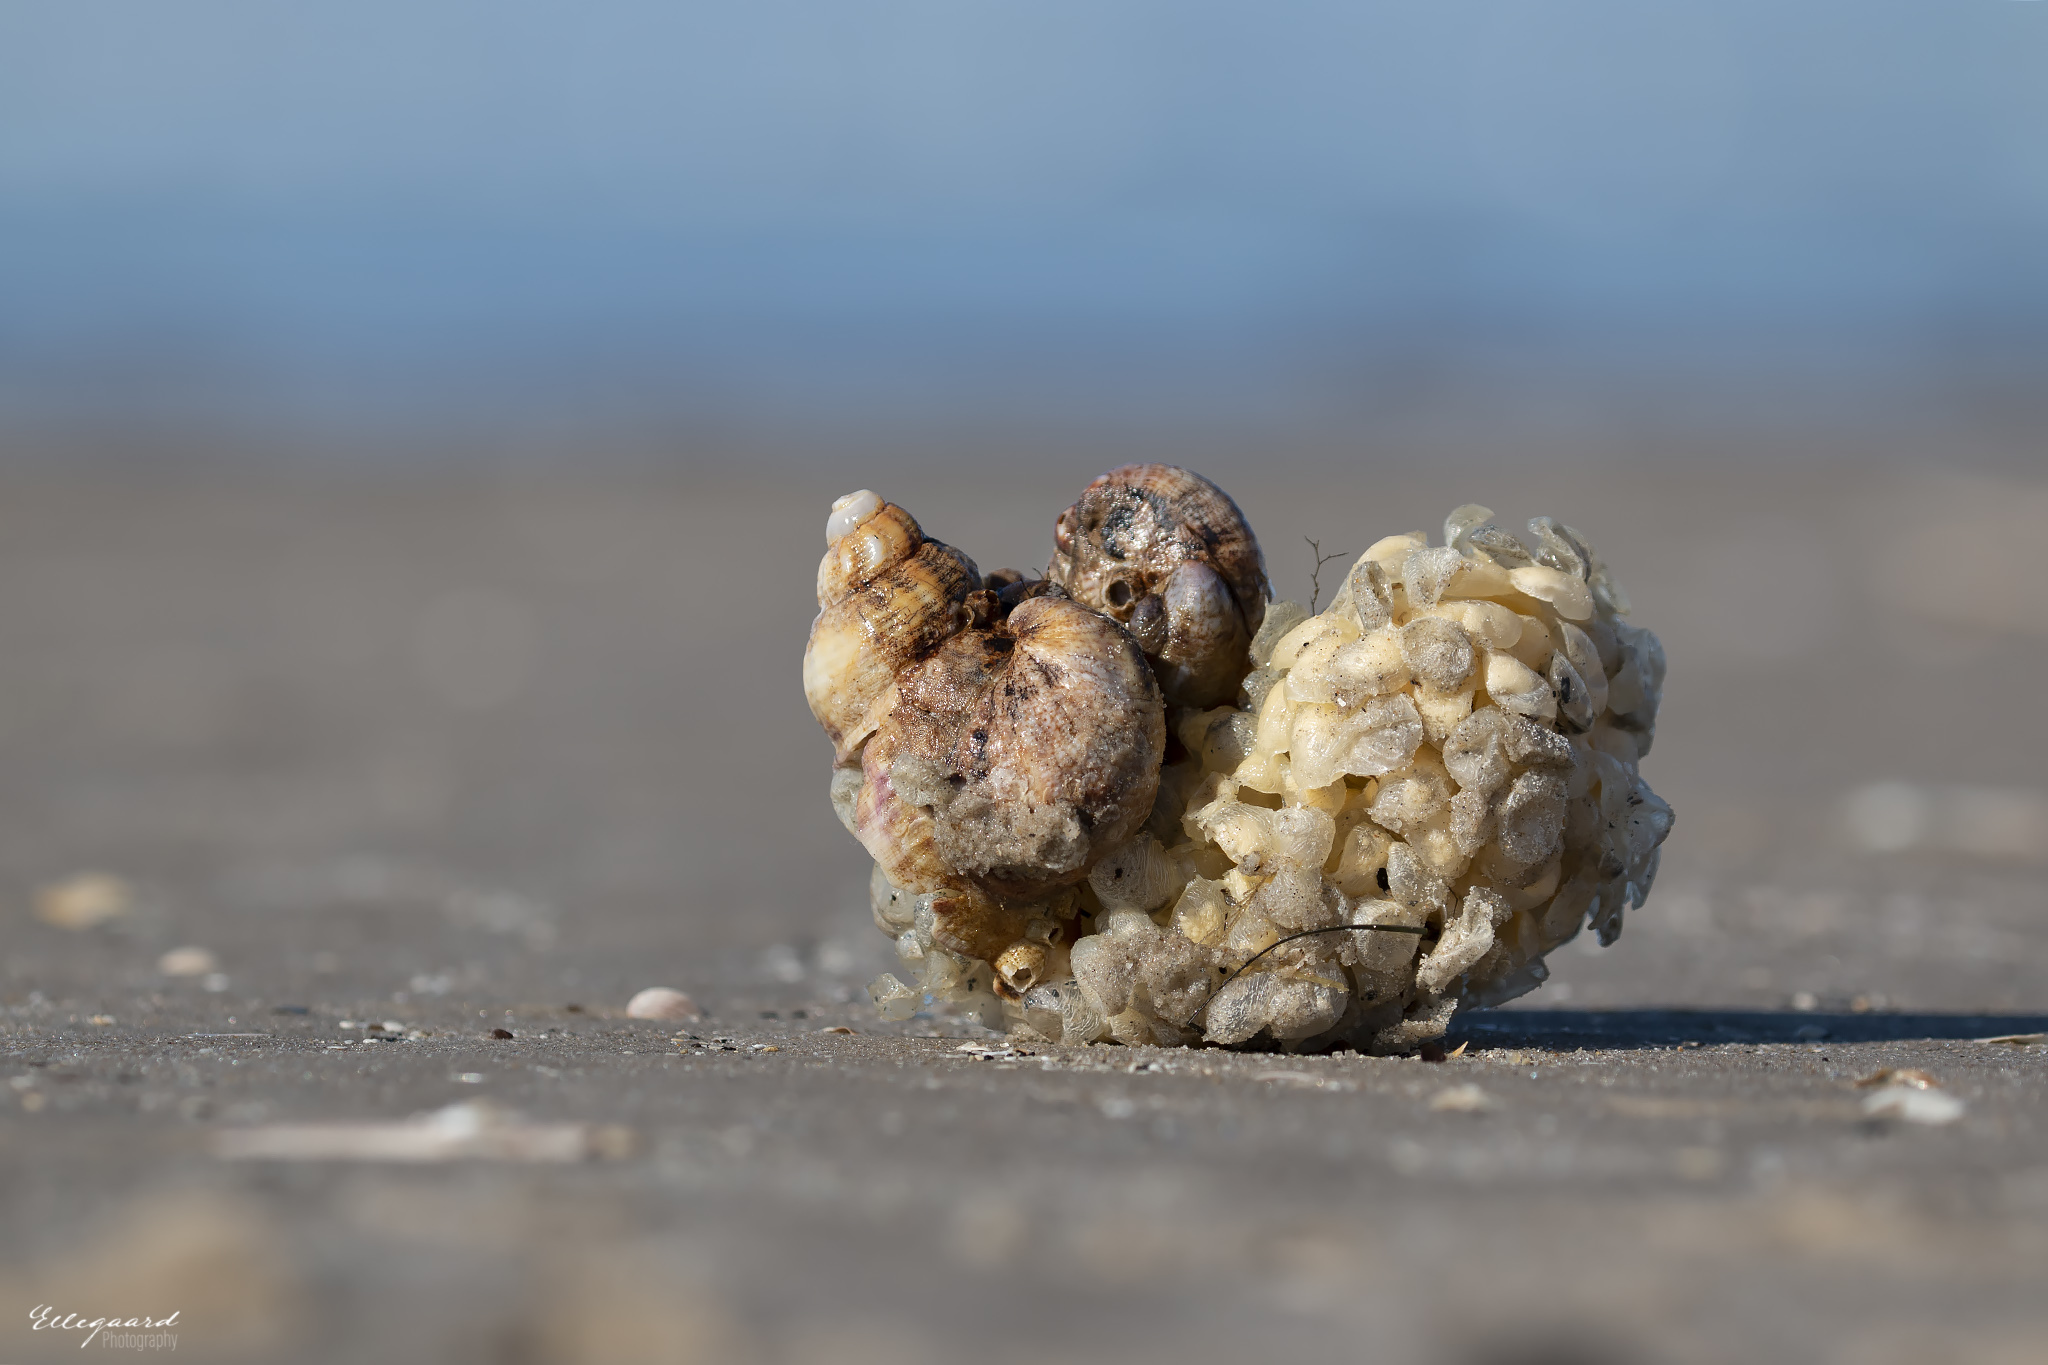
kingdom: Animalia
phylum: Mollusca
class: Gastropoda
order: Neogastropoda
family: Buccinidae
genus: Buccinum
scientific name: Buccinum undatum
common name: Common whelk
